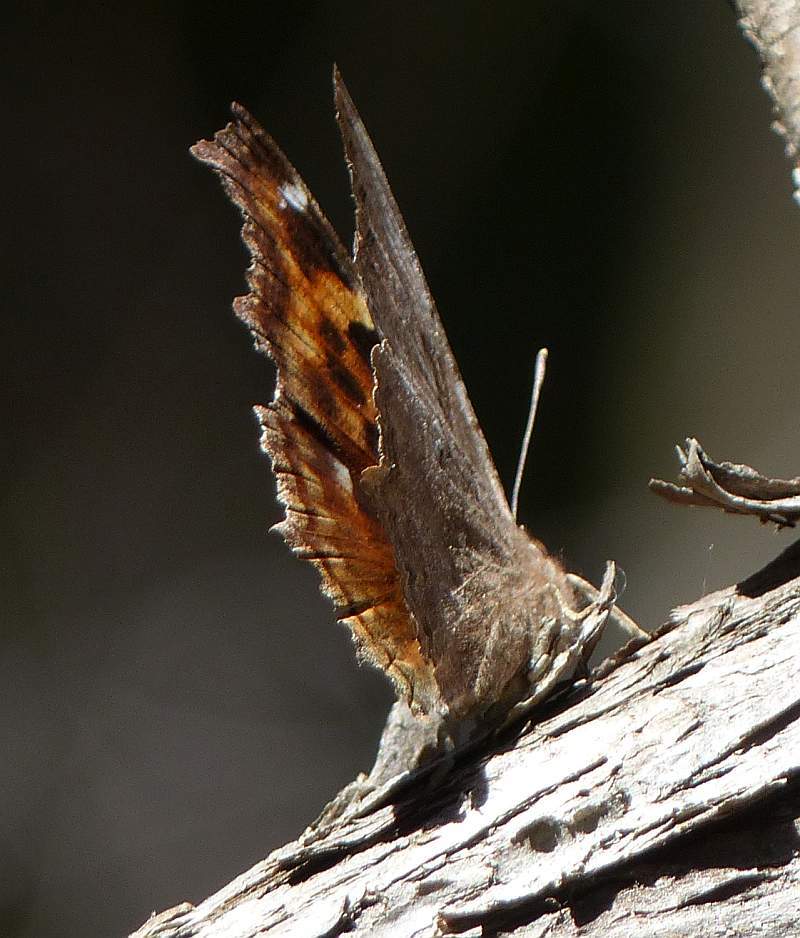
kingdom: Animalia
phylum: Arthropoda
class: Insecta
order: Lepidoptera
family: Nymphalidae
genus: Polygonia
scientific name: Polygonia vaualbum
